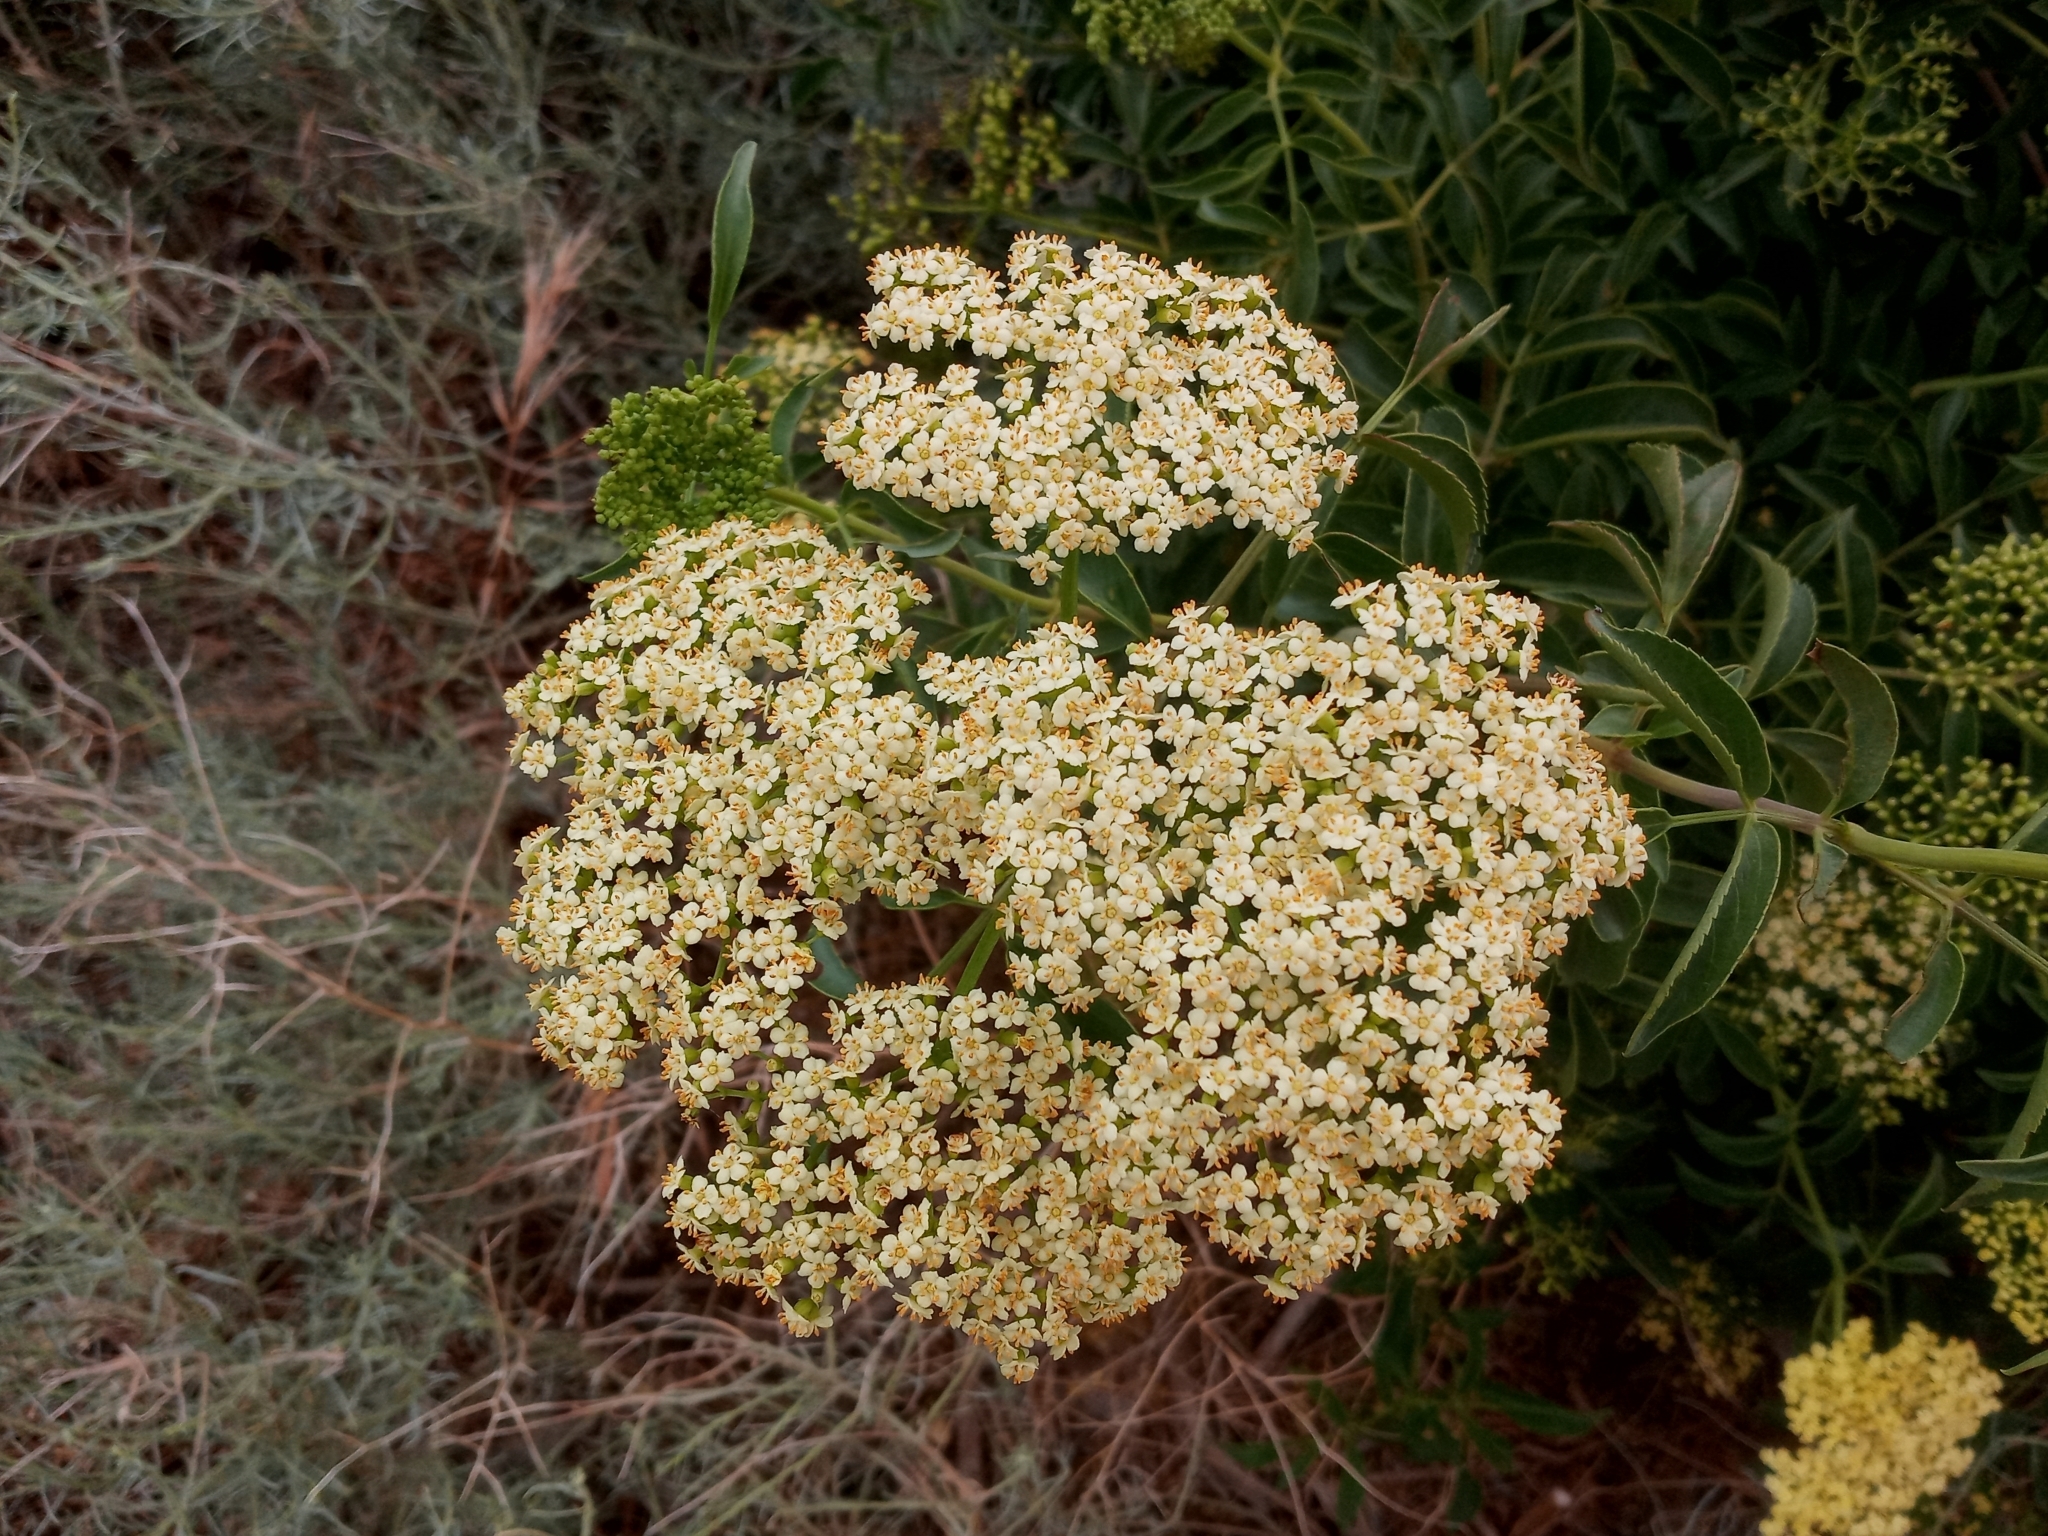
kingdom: Plantae
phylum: Tracheophyta
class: Magnoliopsida
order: Dipsacales
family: Viburnaceae
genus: Sambucus
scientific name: Sambucus cerulea
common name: Blue elder
